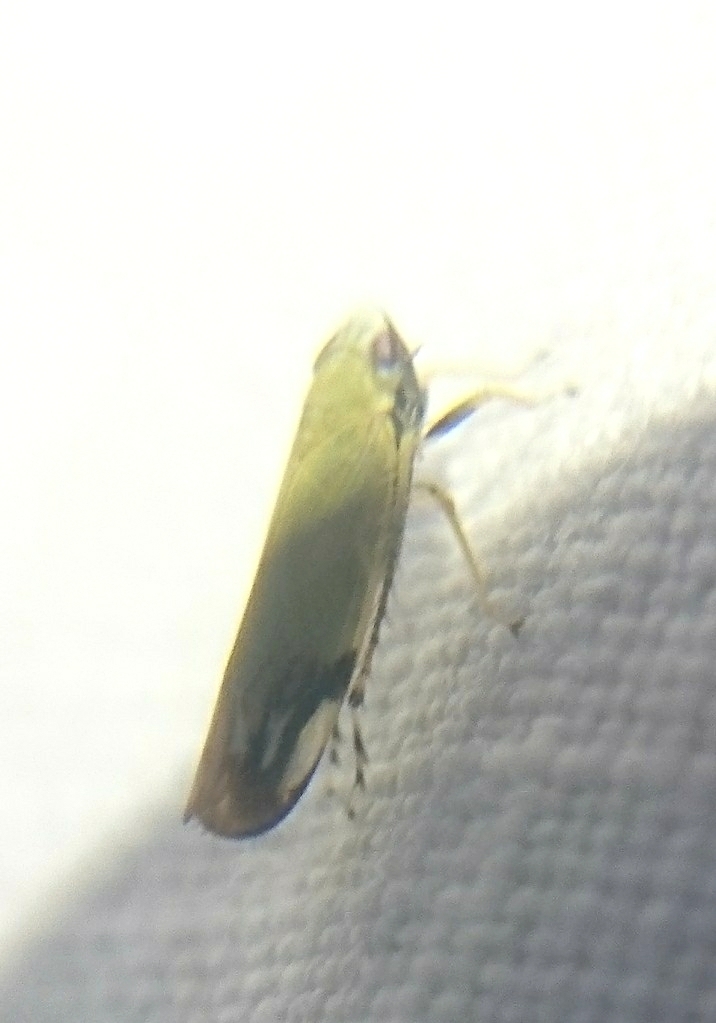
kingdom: Animalia
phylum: Arthropoda
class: Insecta
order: Hemiptera
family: Cicadellidae
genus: Deltanus
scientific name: Deltanus bicolor
